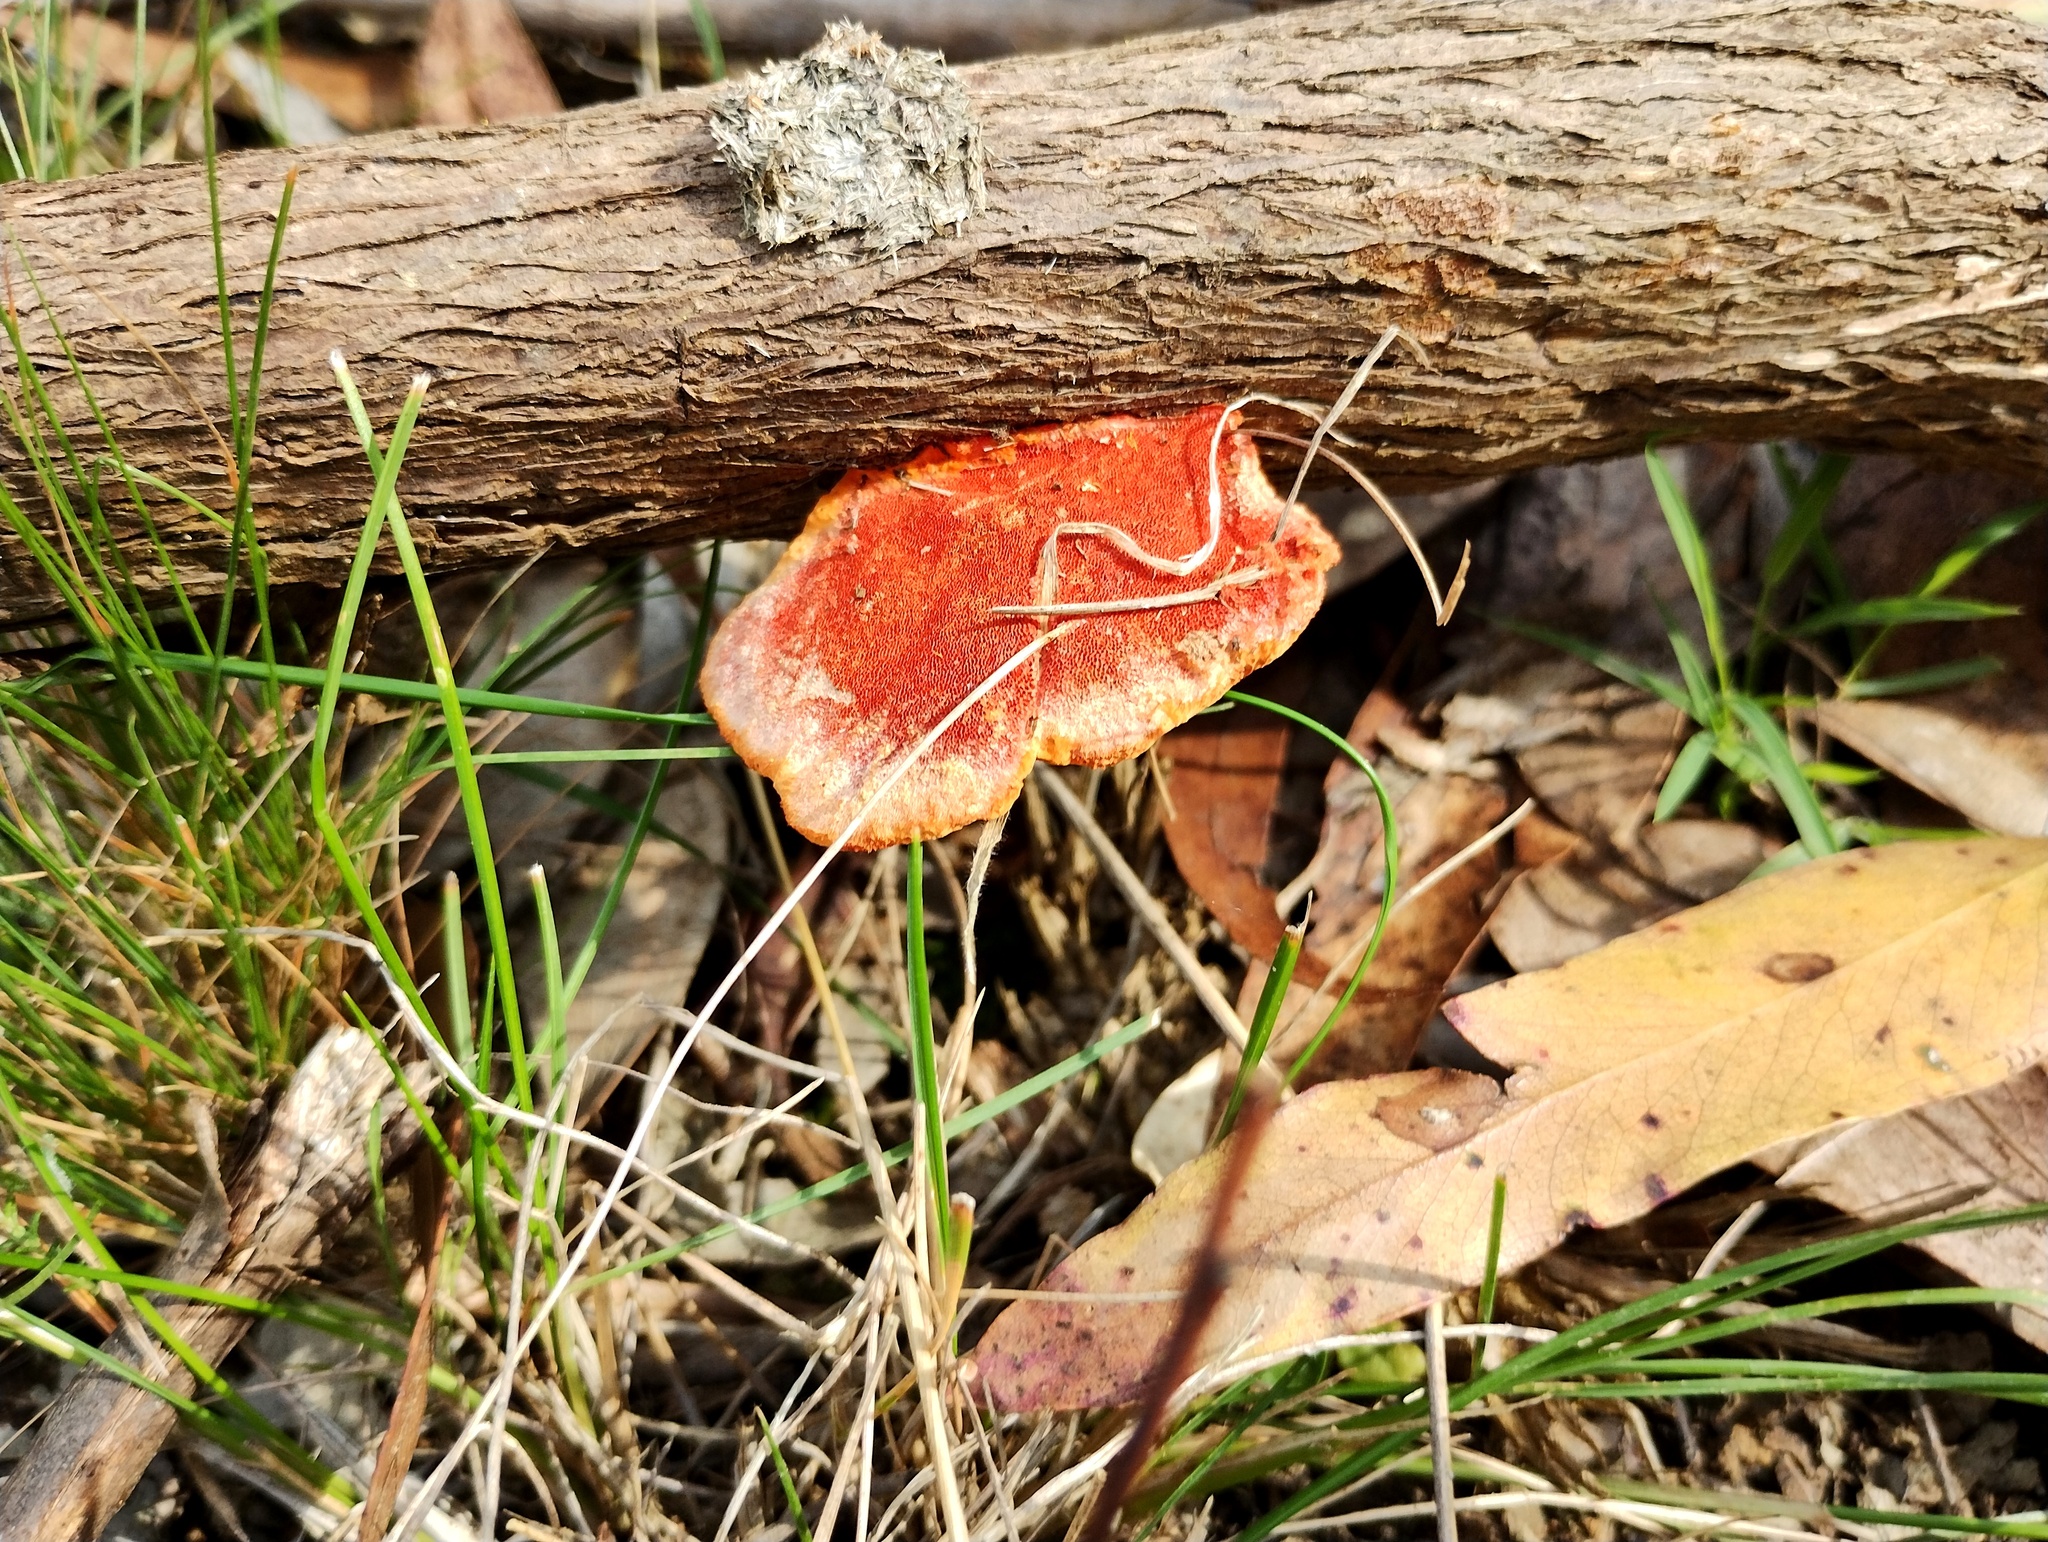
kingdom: Fungi
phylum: Basidiomycota
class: Agaricomycetes
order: Polyporales
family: Polyporaceae
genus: Trametes
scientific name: Trametes coccinea
